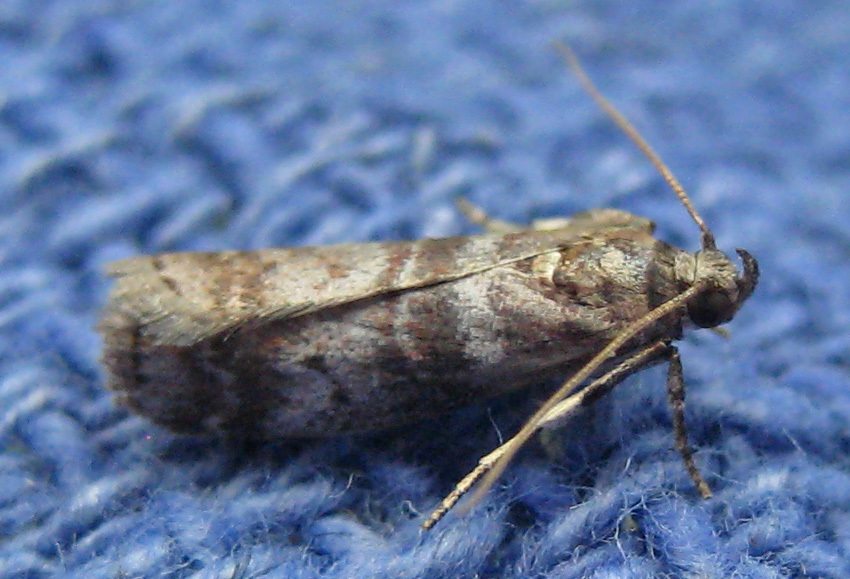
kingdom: Animalia
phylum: Arthropoda
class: Insecta
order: Lepidoptera
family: Pyralidae
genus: Sciota
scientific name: Sciota uvinella
